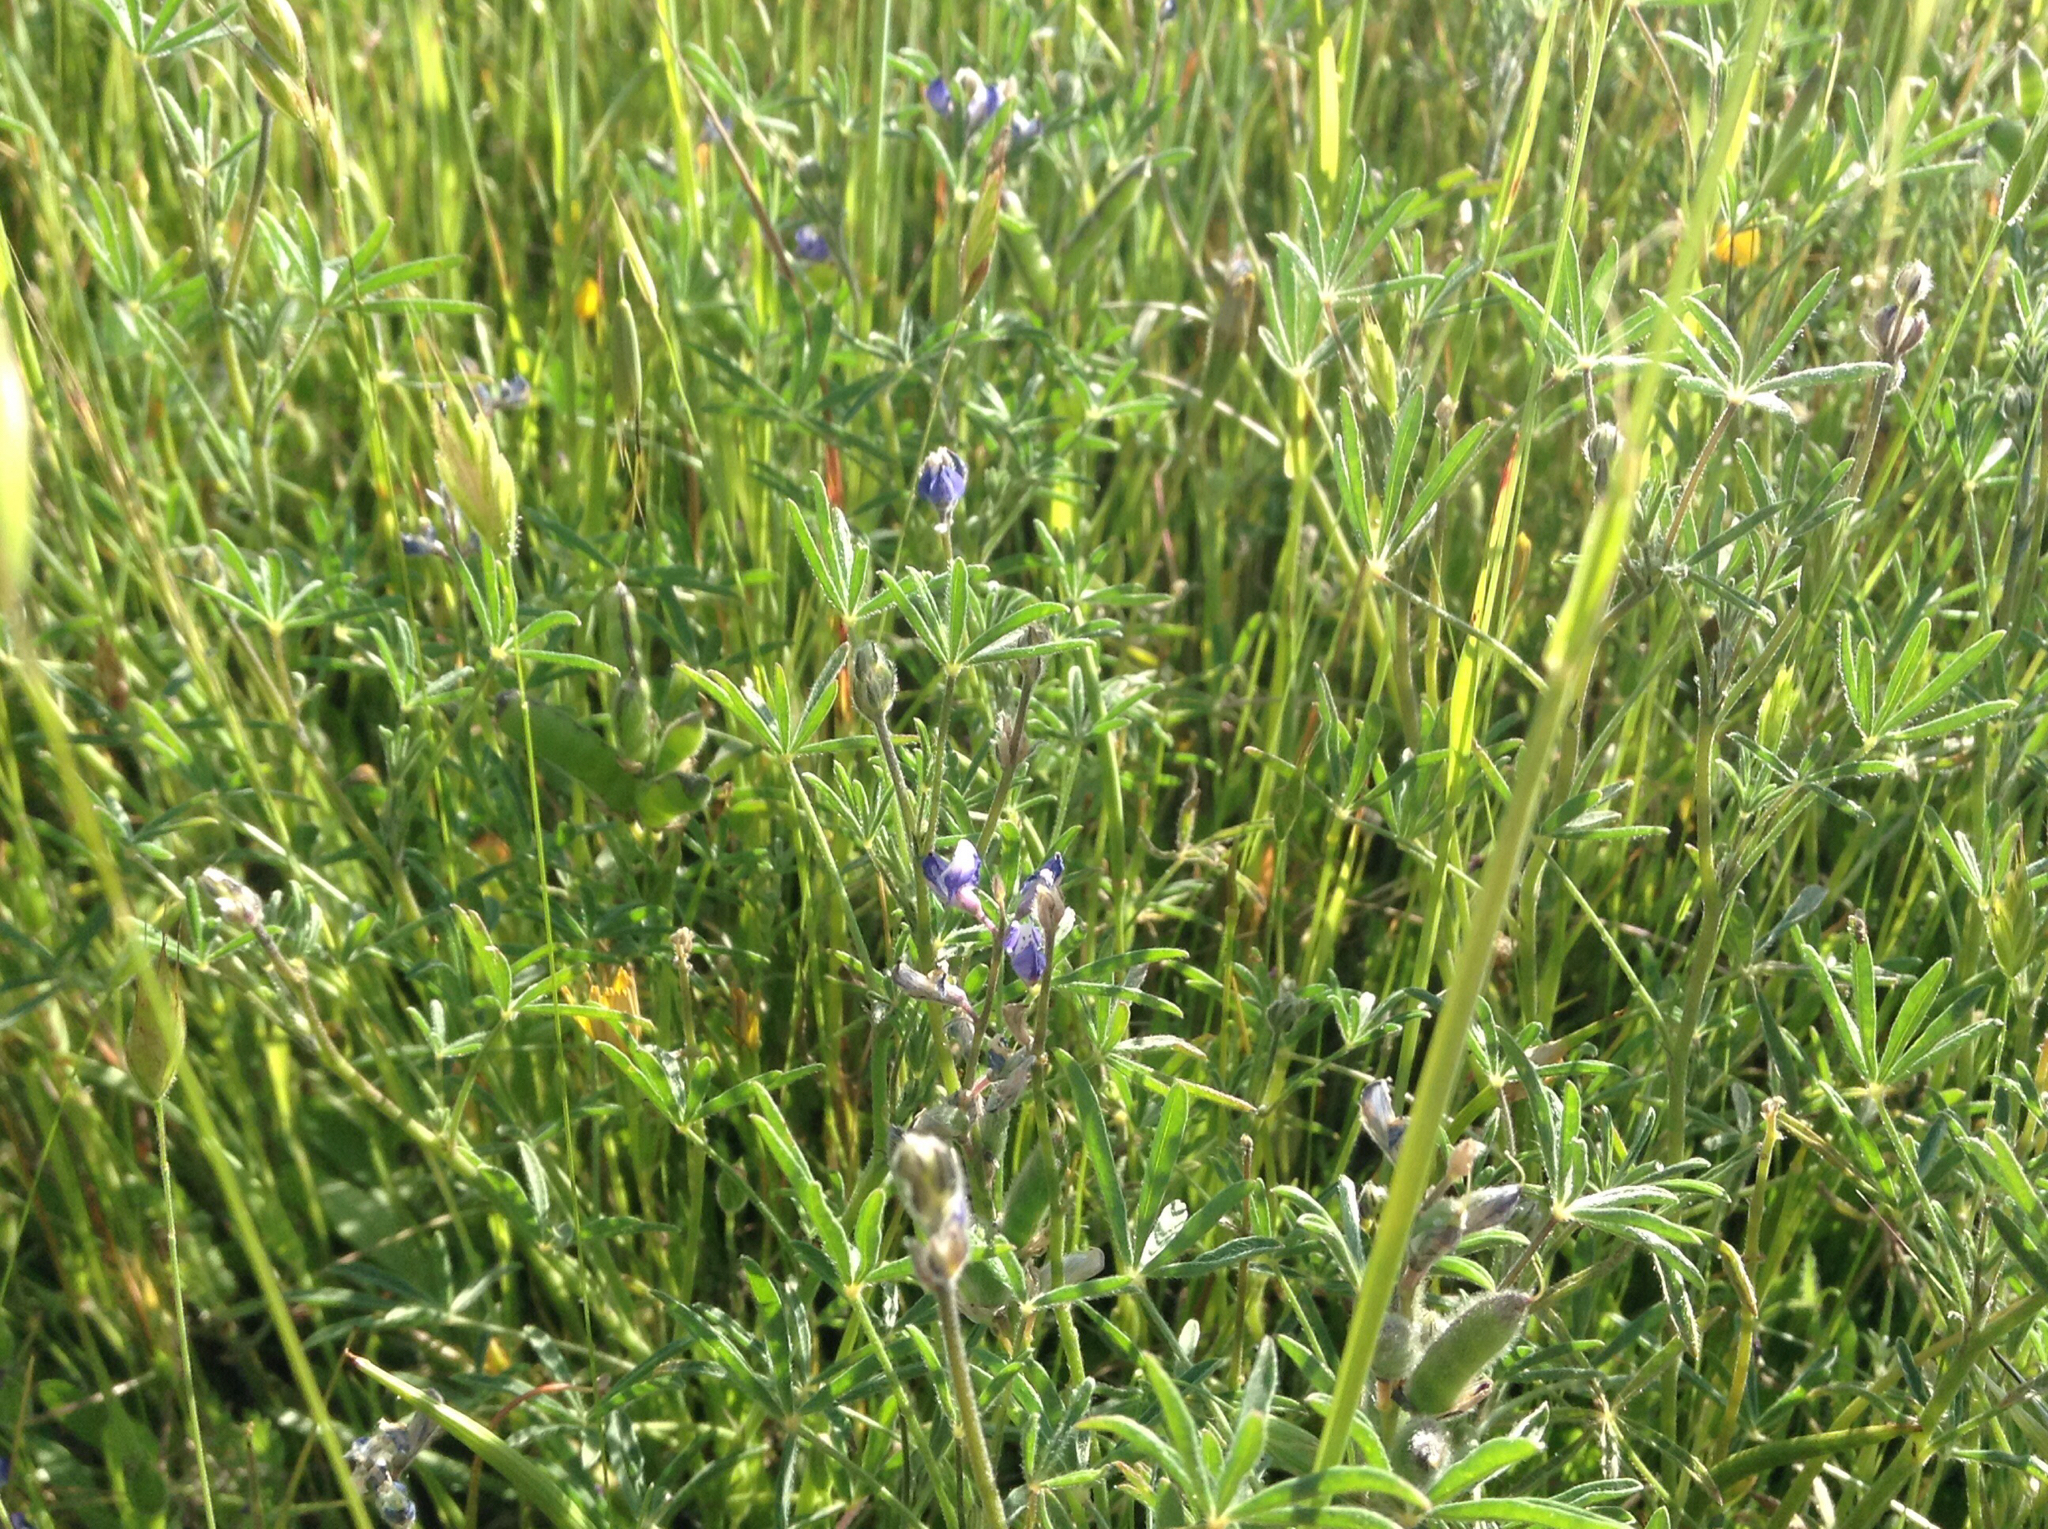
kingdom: Plantae
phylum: Tracheophyta
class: Magnoliopsida
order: Fabales
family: Fabaceae
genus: Lupinus
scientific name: Lupinus bicolor
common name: Miniature lupine
